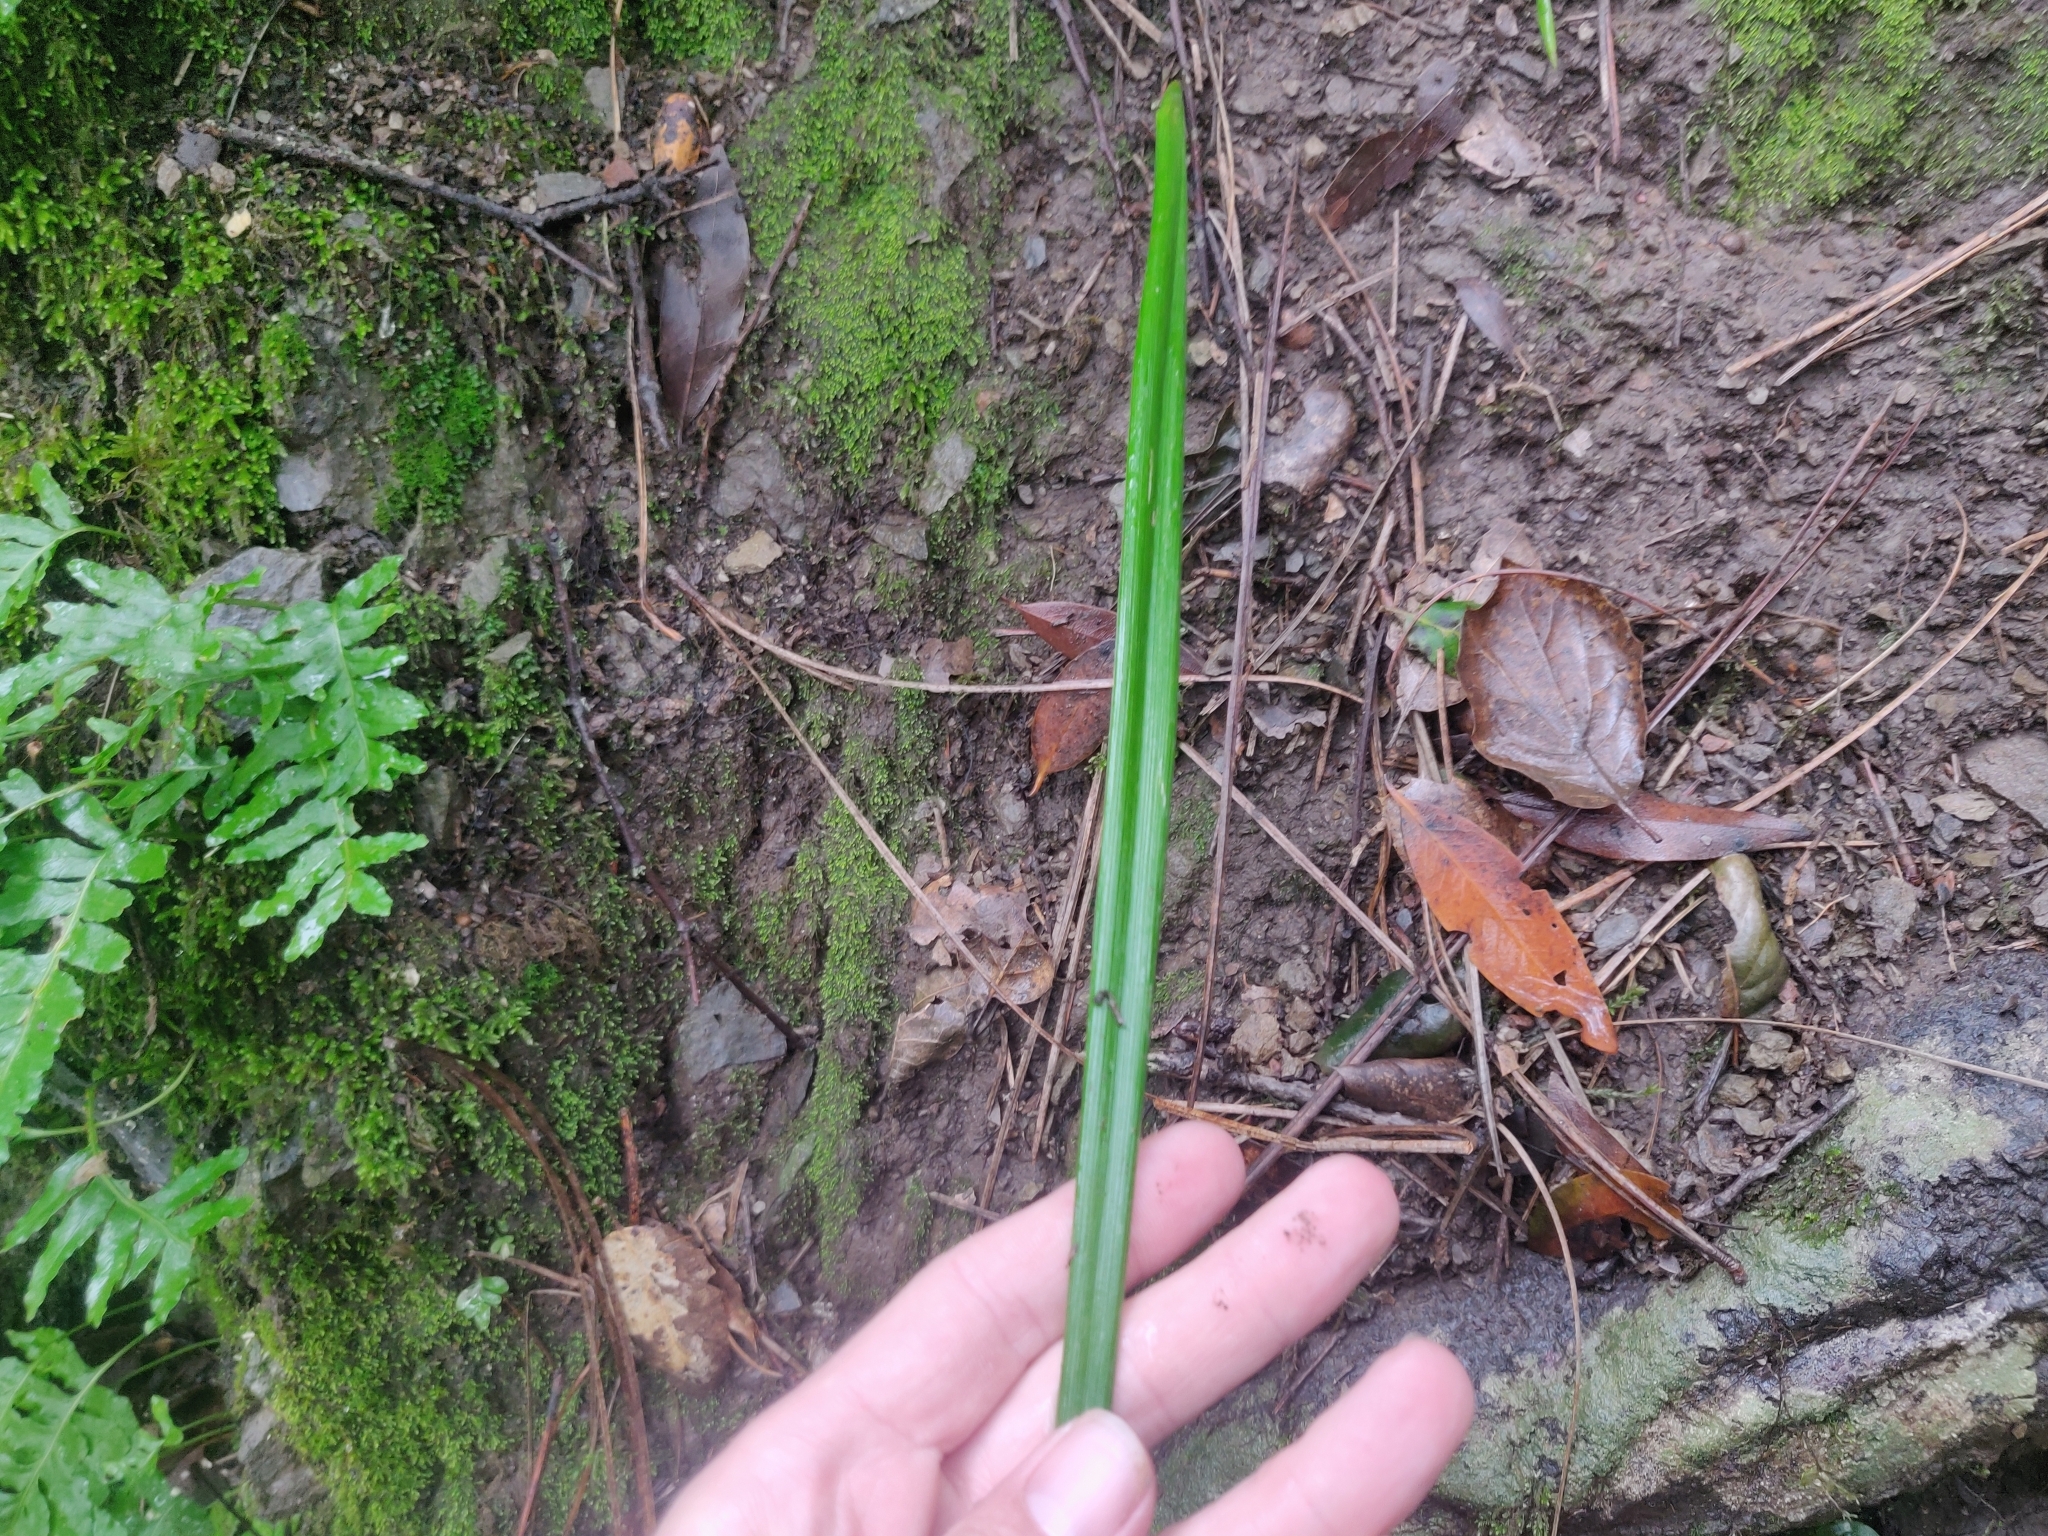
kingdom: Plantae
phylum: Tracheophyta
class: Liliopsida
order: Liliales
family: Liliaceae
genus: Calochortus
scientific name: Calochortus albus
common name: Fairy-lantern
